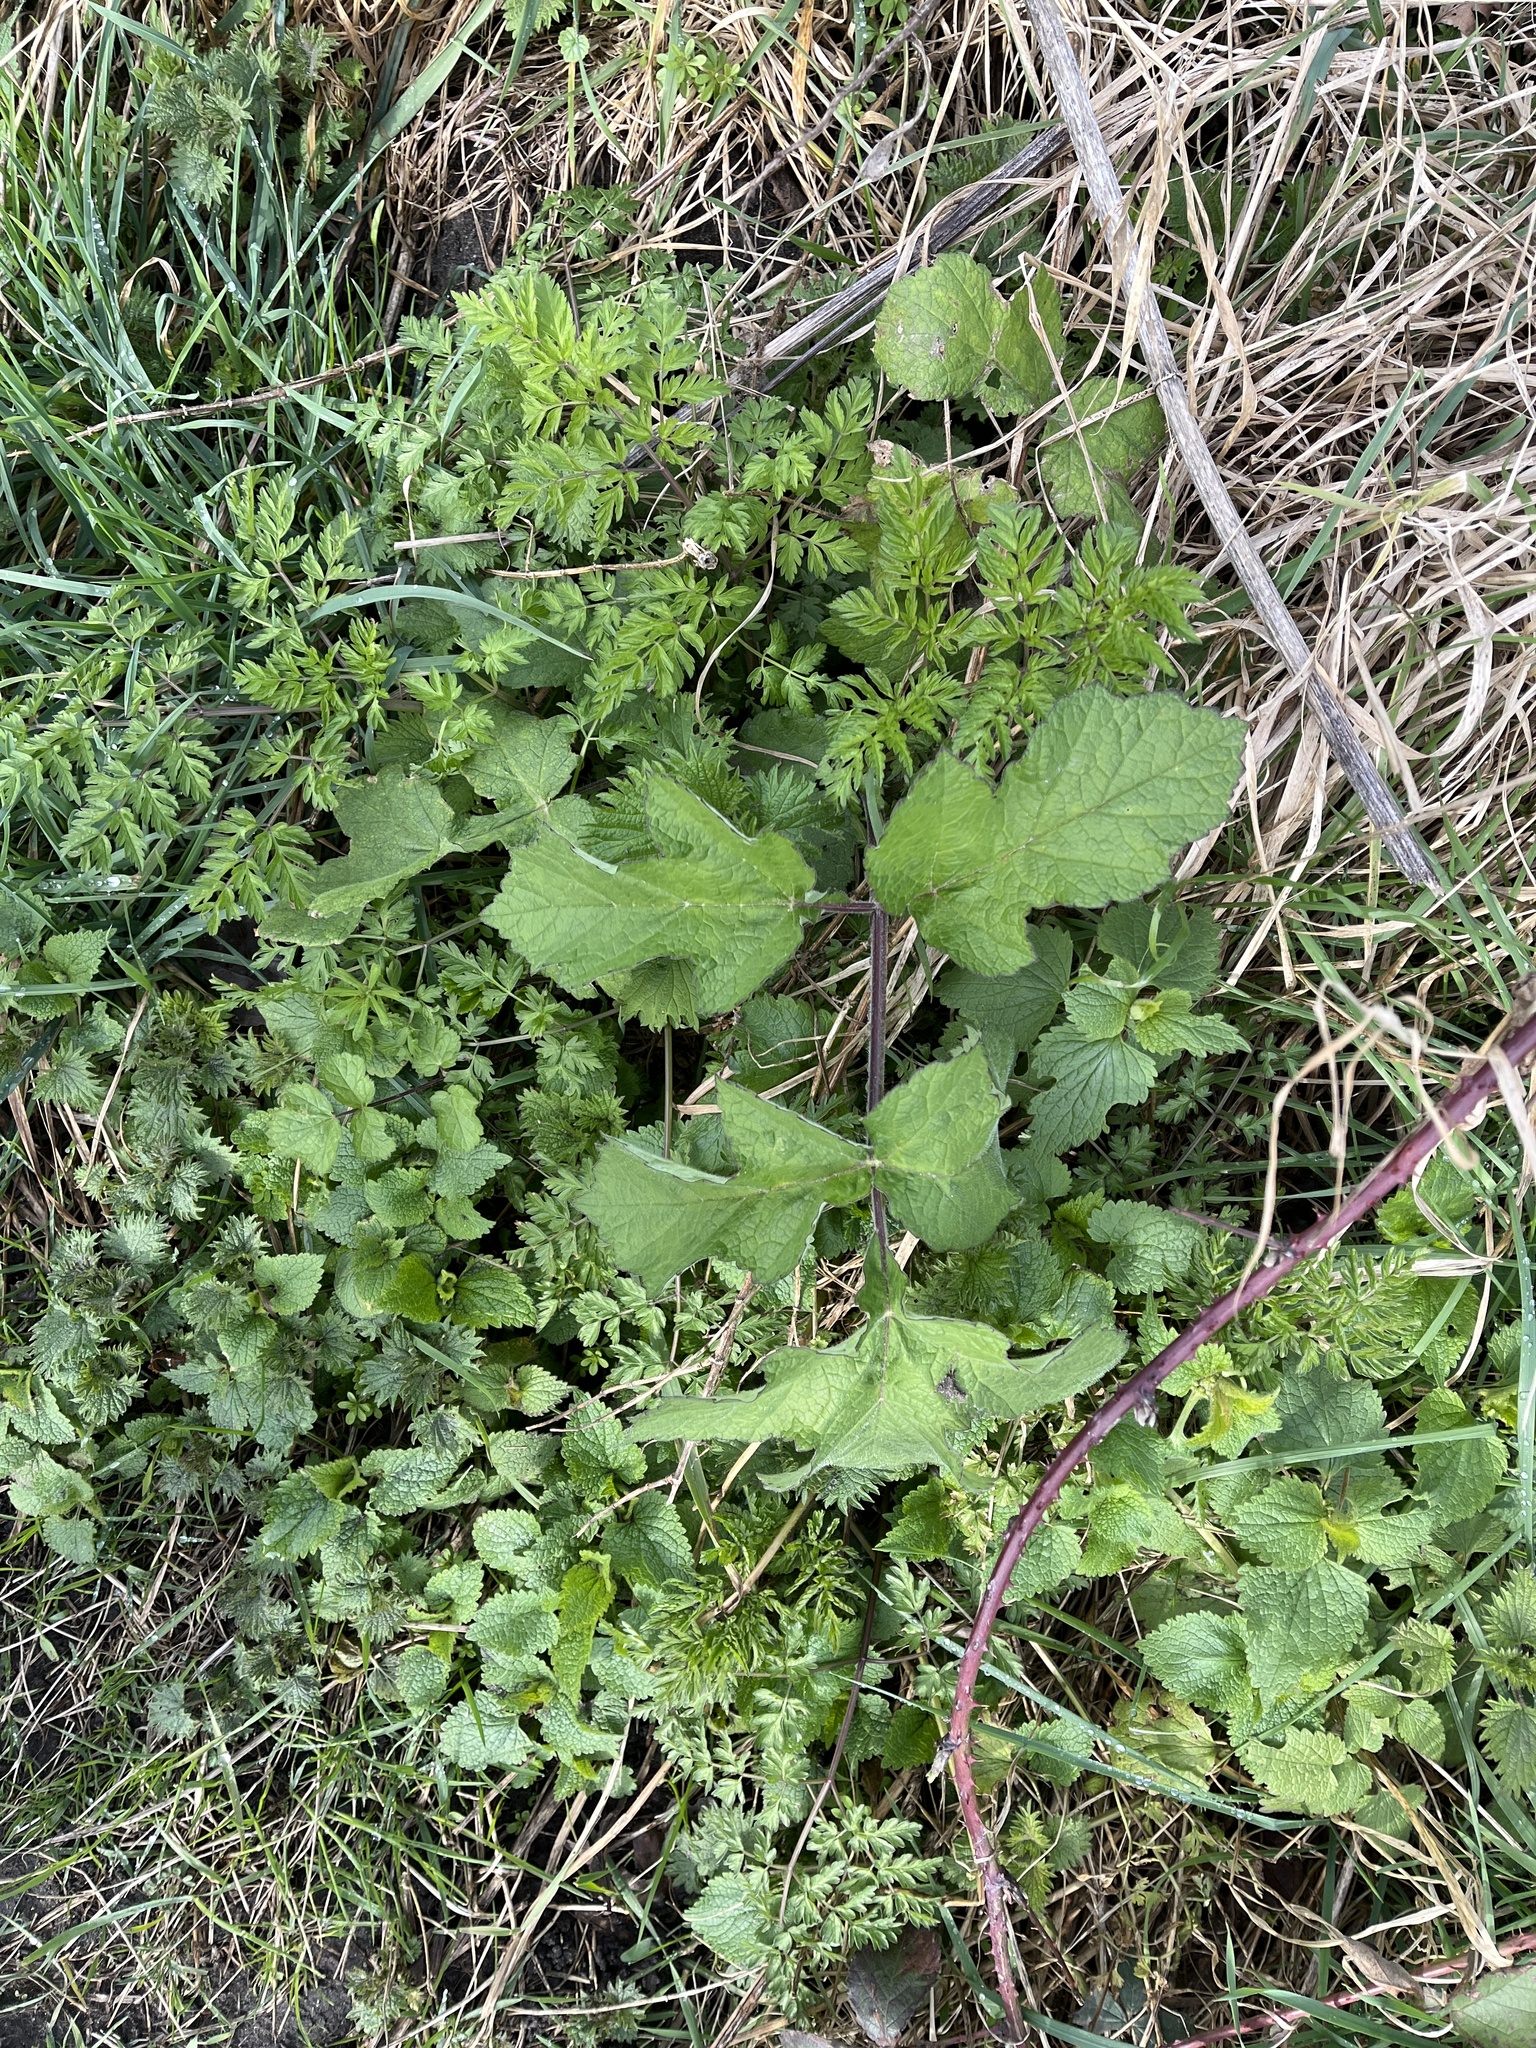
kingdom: Plantae
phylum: Tracheophyta
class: Magnoliopsida
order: Apiales
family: Apiaceae
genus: Heracleum
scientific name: Heracleum sphondylium
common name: Hogweed
